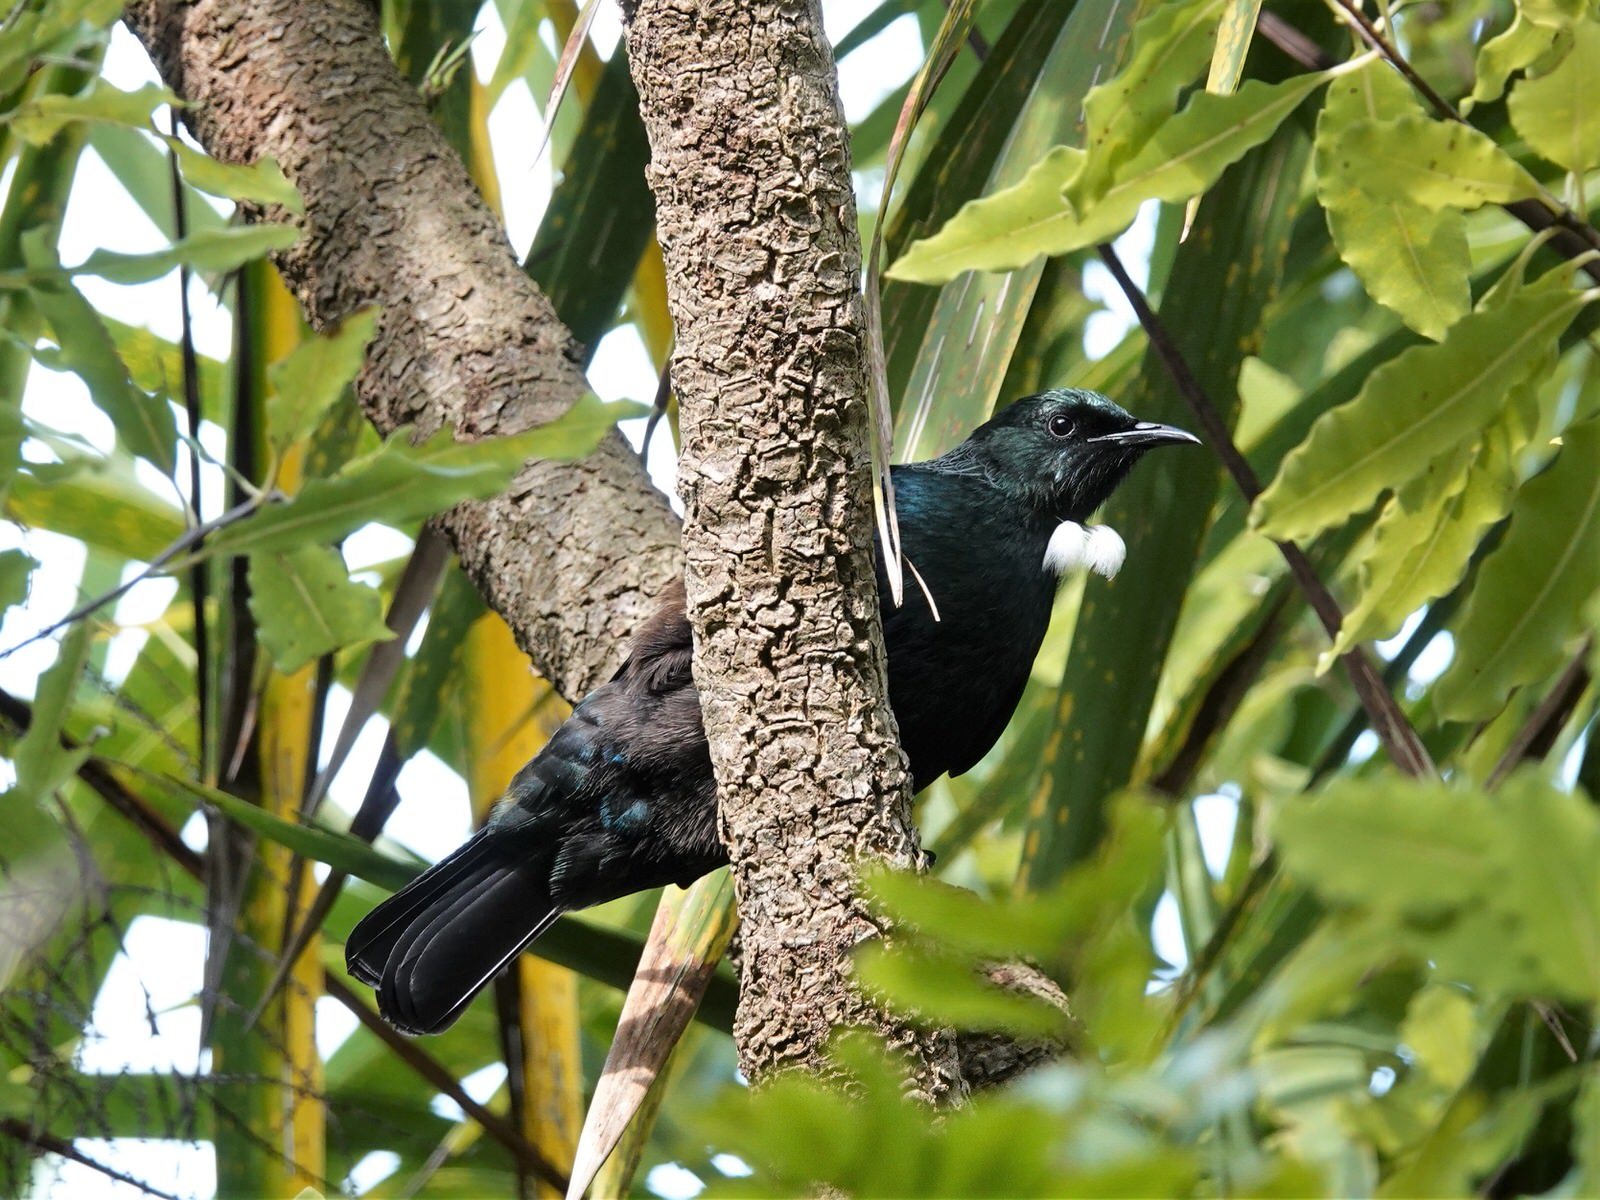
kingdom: Animalia
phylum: Chordata
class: Aves
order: Passeriformes
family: Meliphagidae
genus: Prosthemadera
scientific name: Prosthemadera novaeseelandiae
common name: Tui
